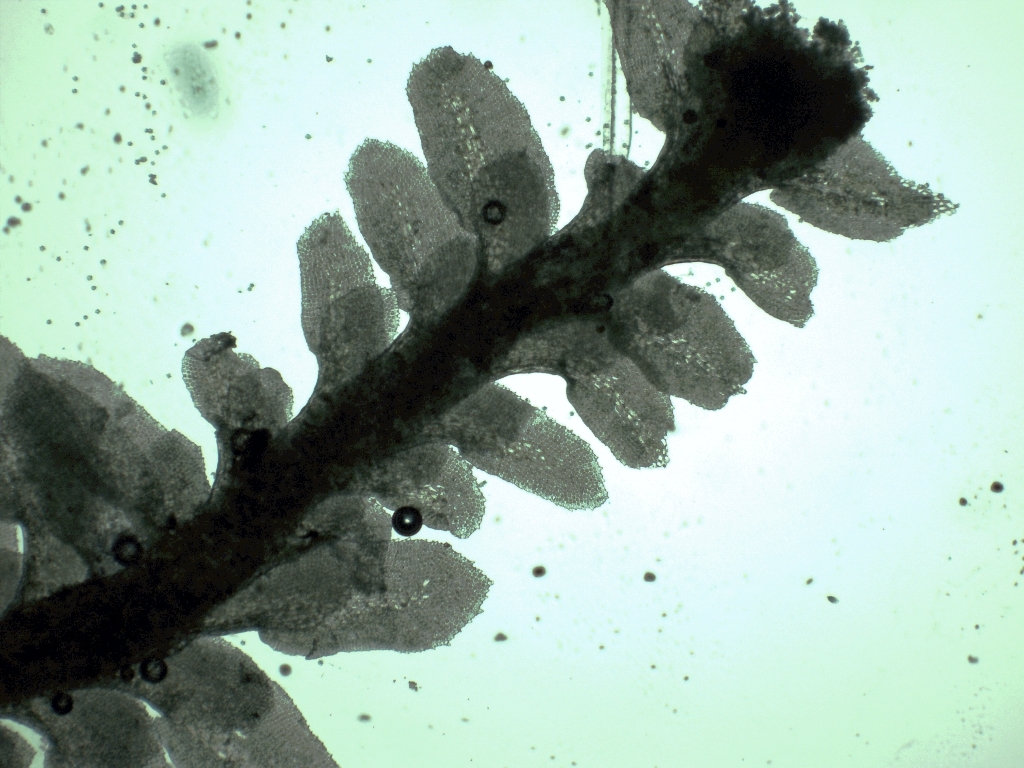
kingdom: Plantae
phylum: Marchantiophyta
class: Jungermanniopsida
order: Jungermanniales
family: Scapaniaceae
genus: Diplophyllum
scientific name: Diplophyllum albicans
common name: White earwort
